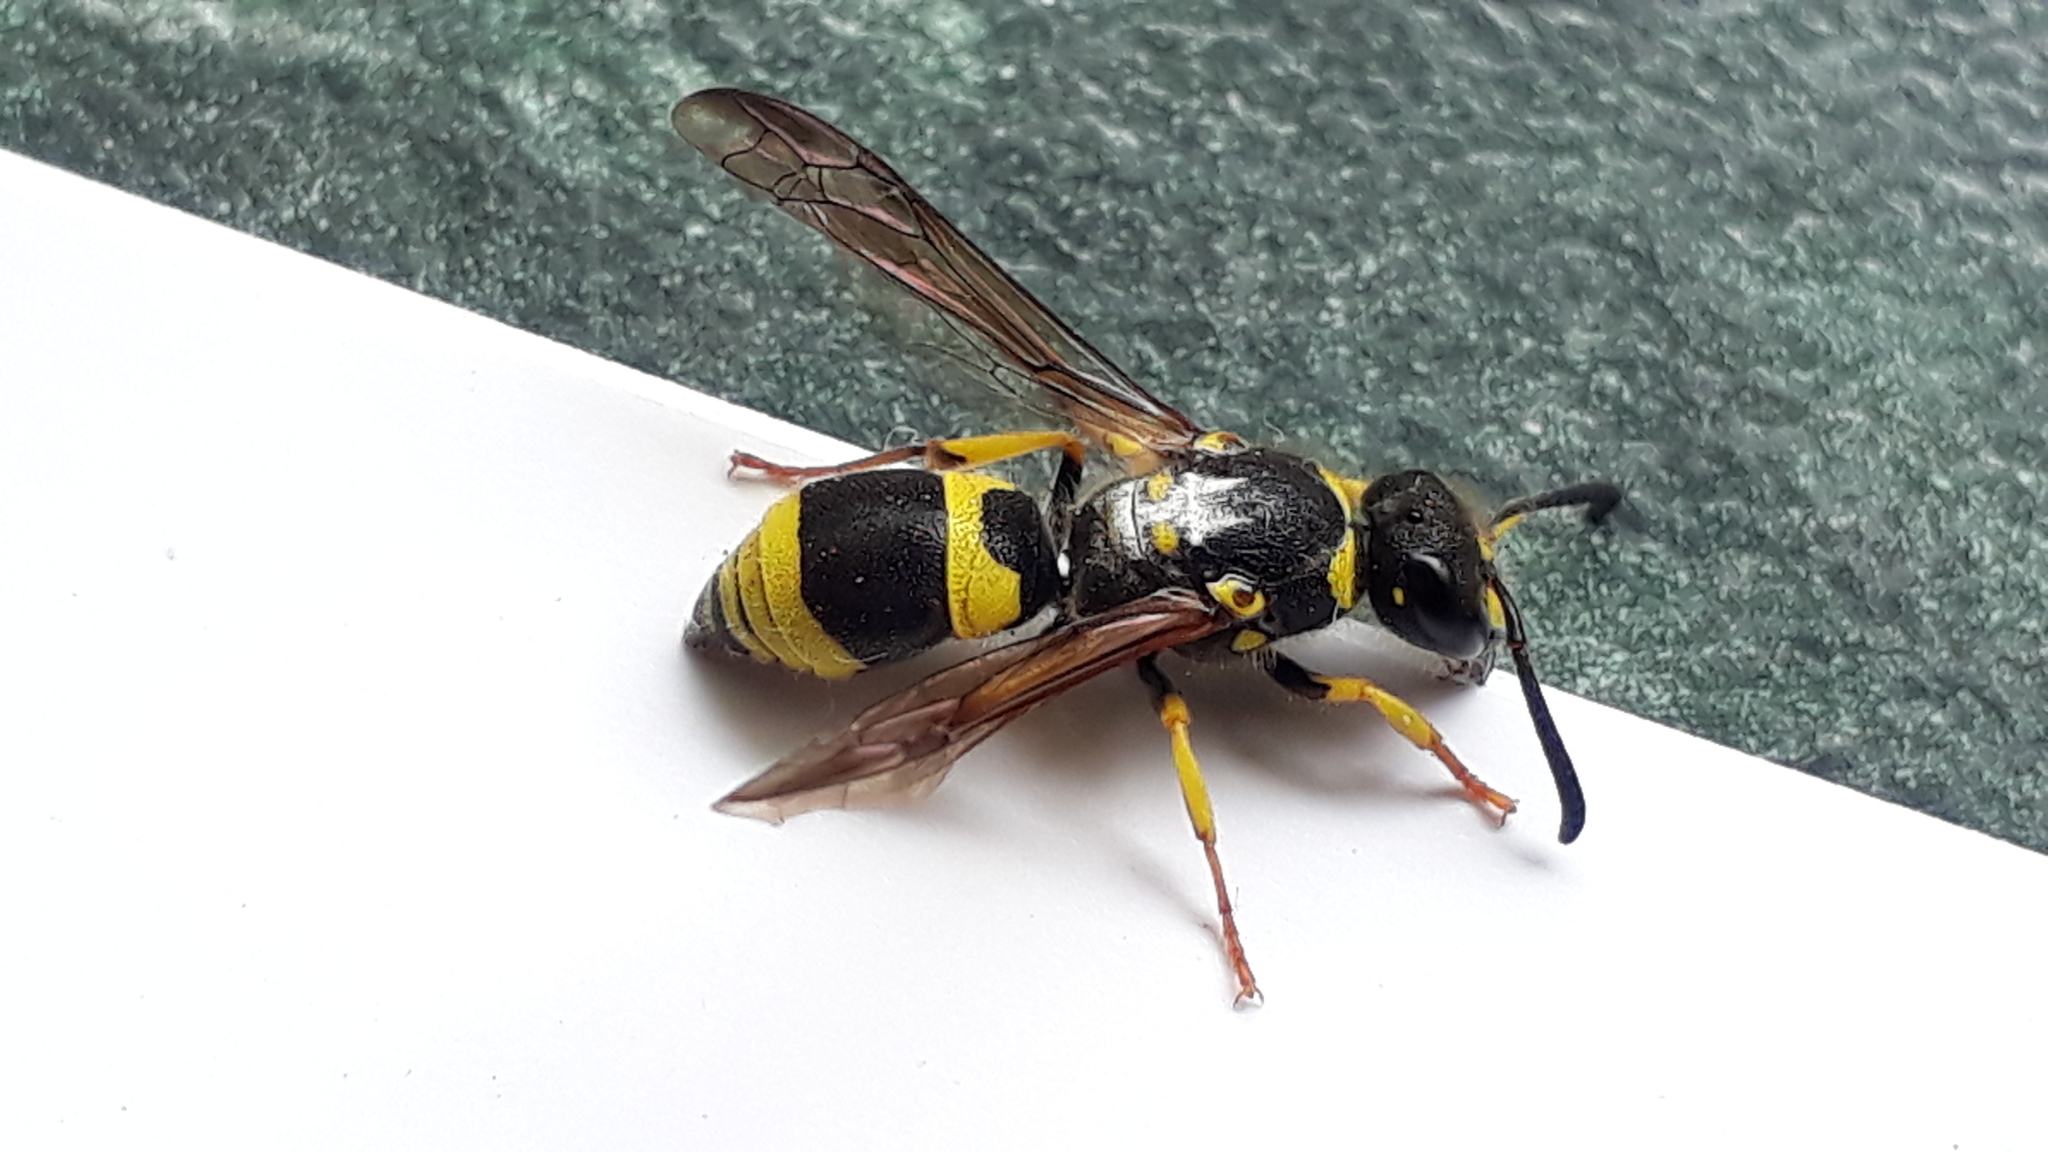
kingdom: Animalia
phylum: Arthropoda
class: Insecta
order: Hymenoptera
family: Vespidae
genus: Ancistrocerus
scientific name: Ancistrocerus gazella
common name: European tube wasp
